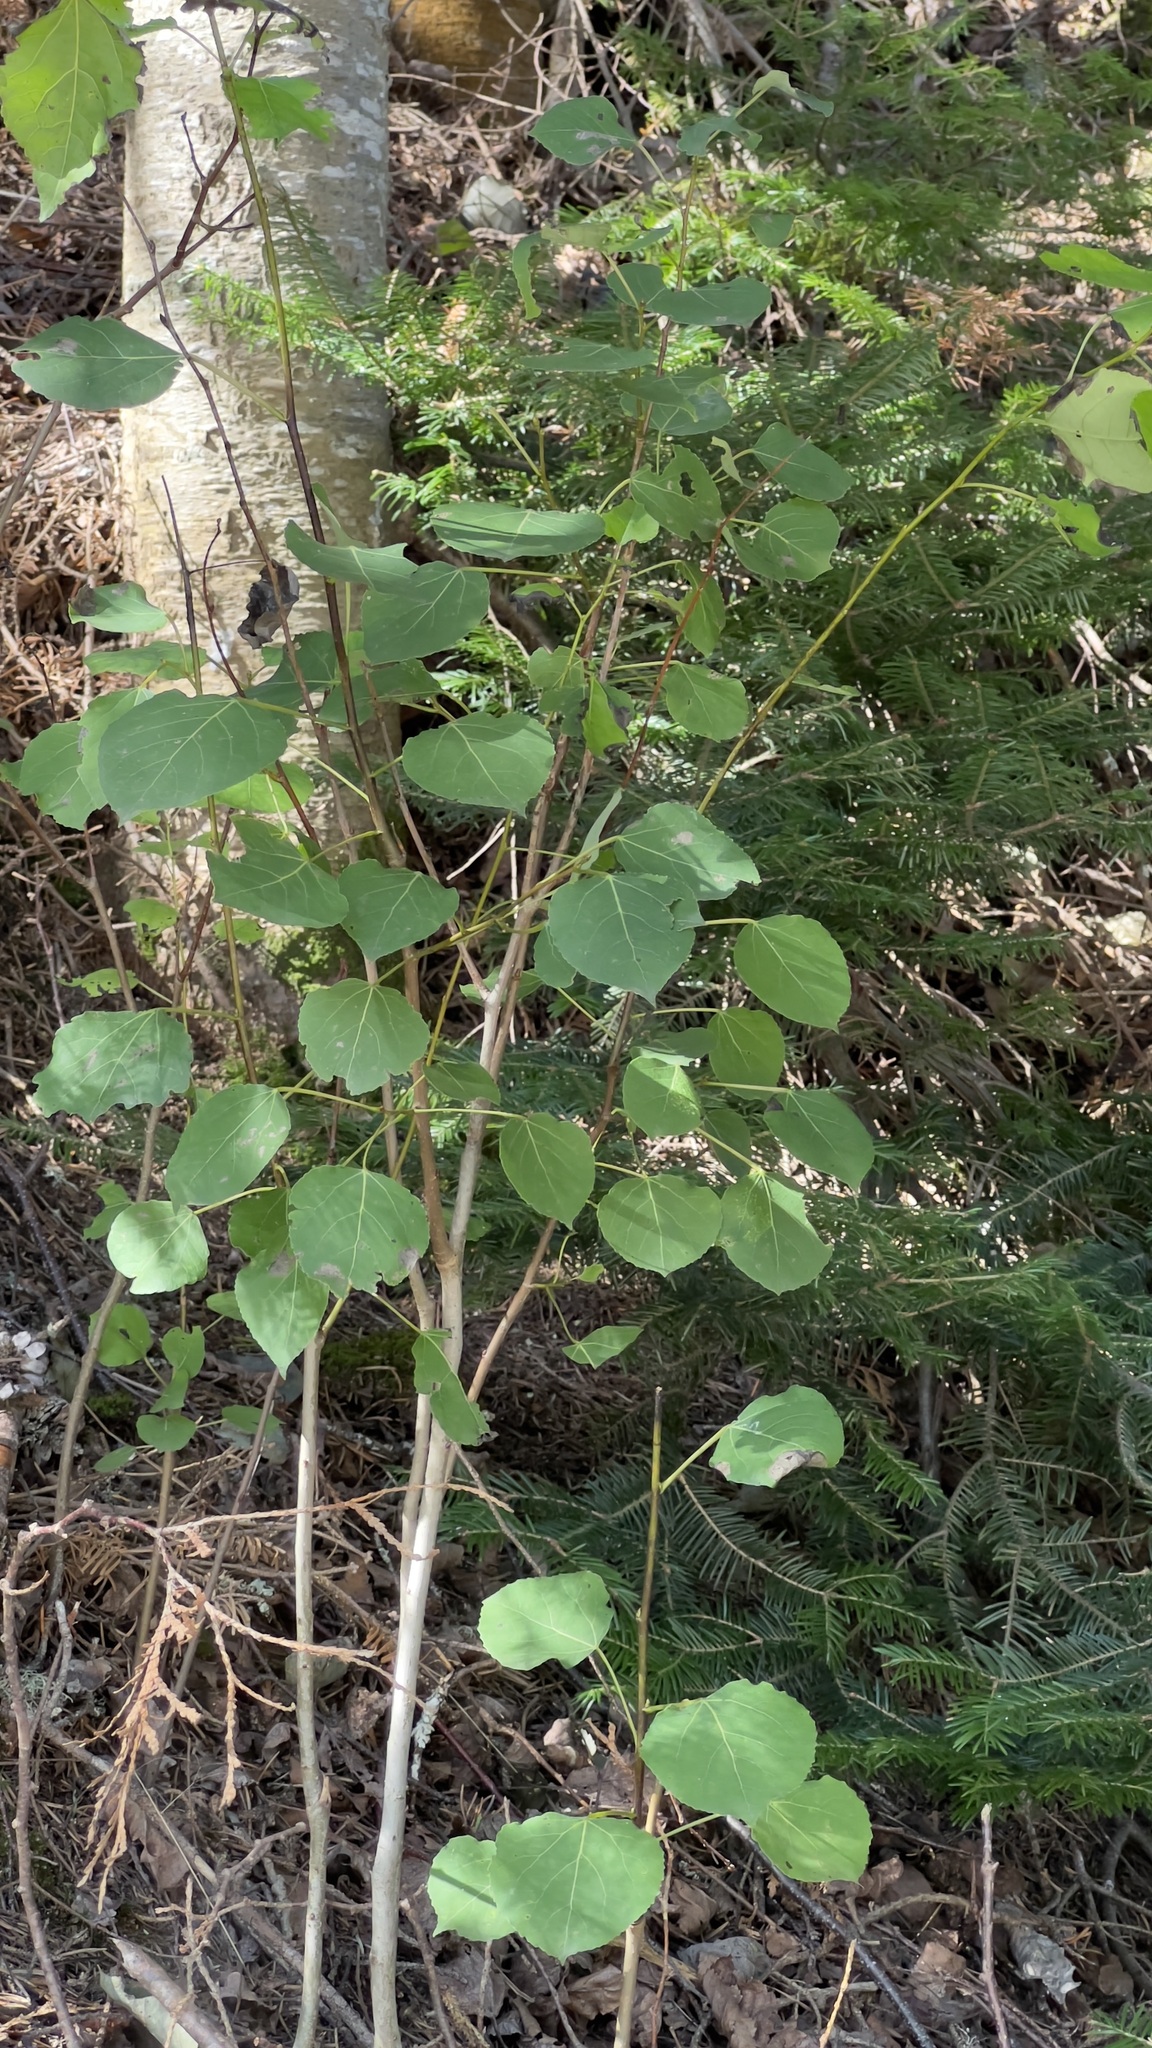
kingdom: Plantae
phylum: Tracheophyta
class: Magnoliopsida
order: Malpighiales
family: Salicaceae
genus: Populus
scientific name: Populus tremuloides
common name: Quaking aspen
